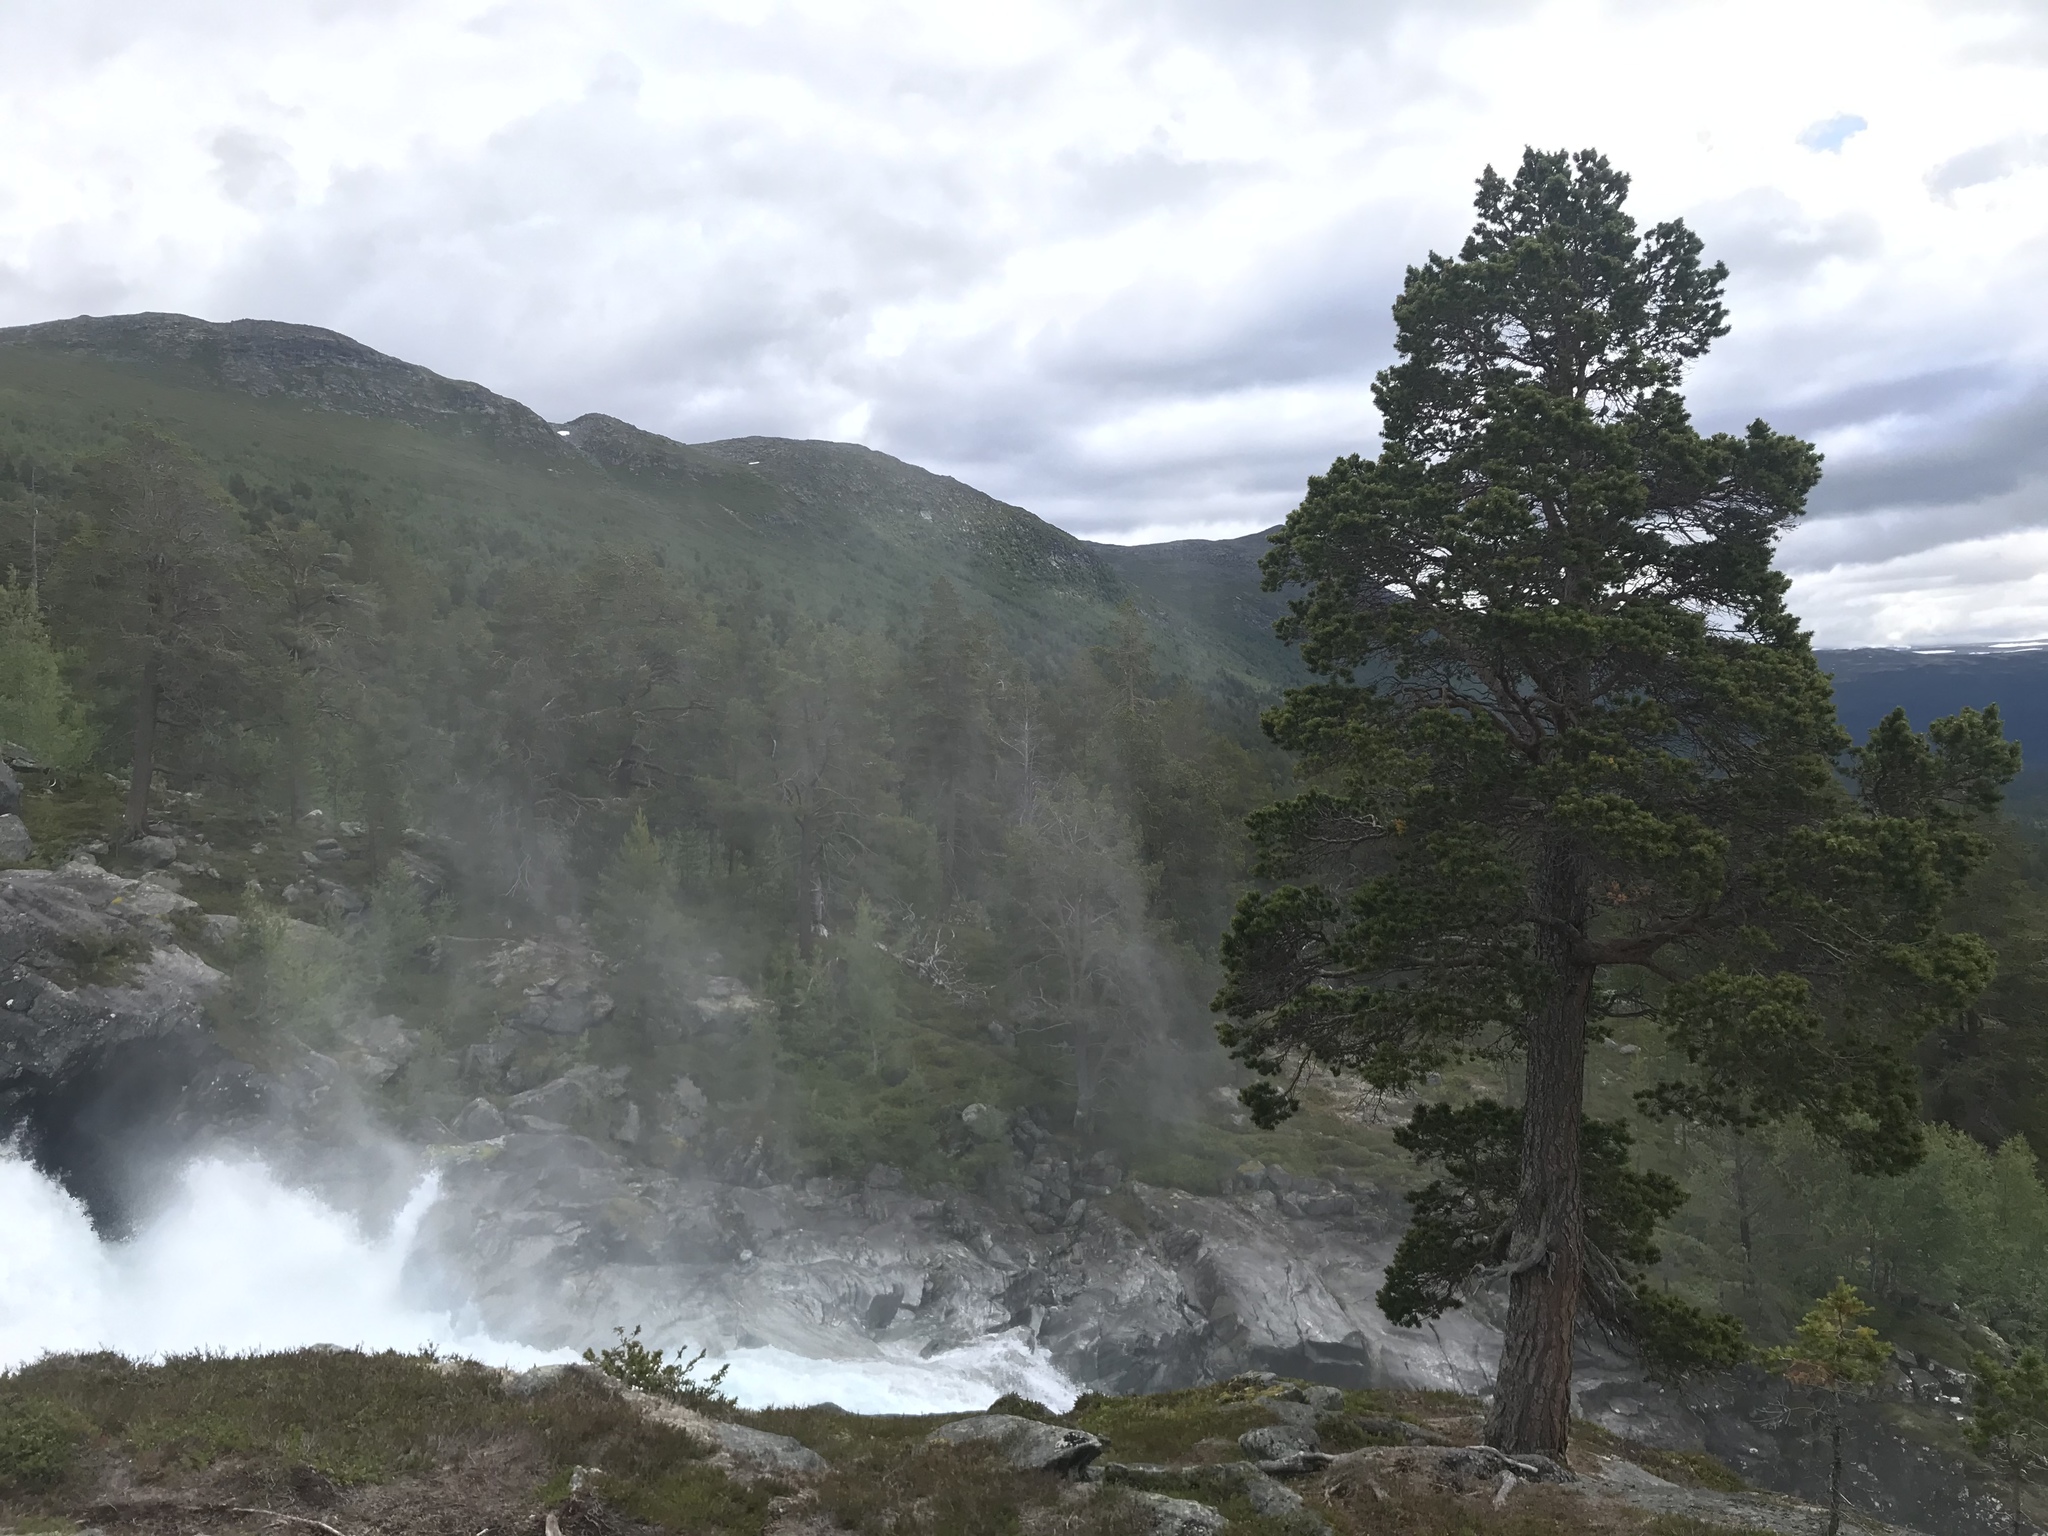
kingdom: Plantae
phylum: Tracheophyta
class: Pinopsida
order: Pinales
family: Pinaceae
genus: Pinus
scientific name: Pinus sylvestris
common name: Scots pine
